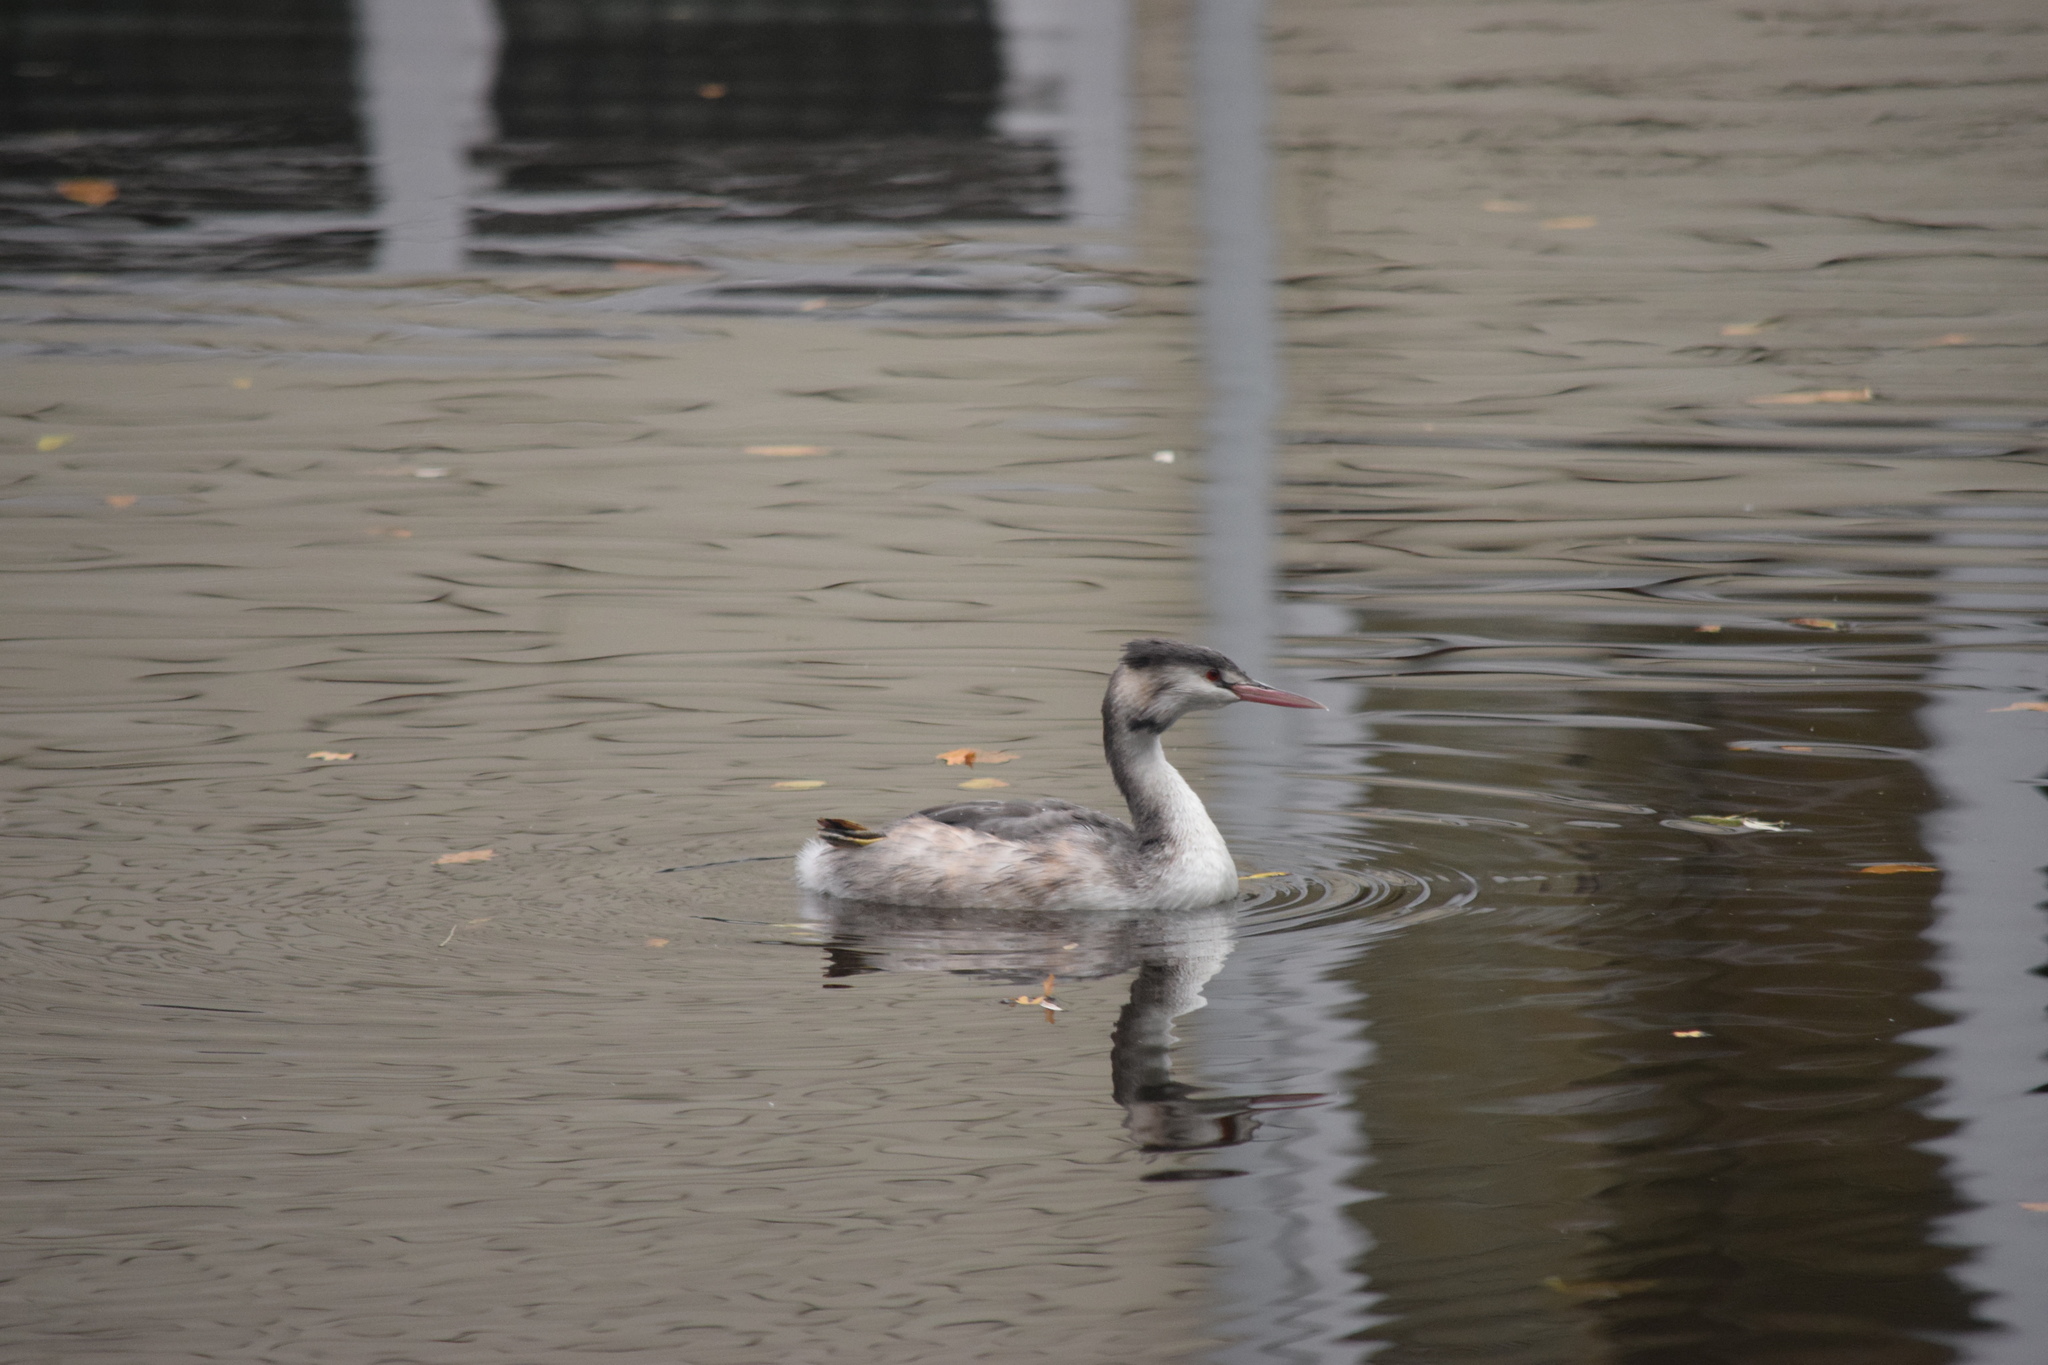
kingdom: Animalia
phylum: Chordata
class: Aves
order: Podicipediformes
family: Podicipedidae
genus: Podiceps
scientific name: Podiceps cristatus
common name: Great crested grebe
